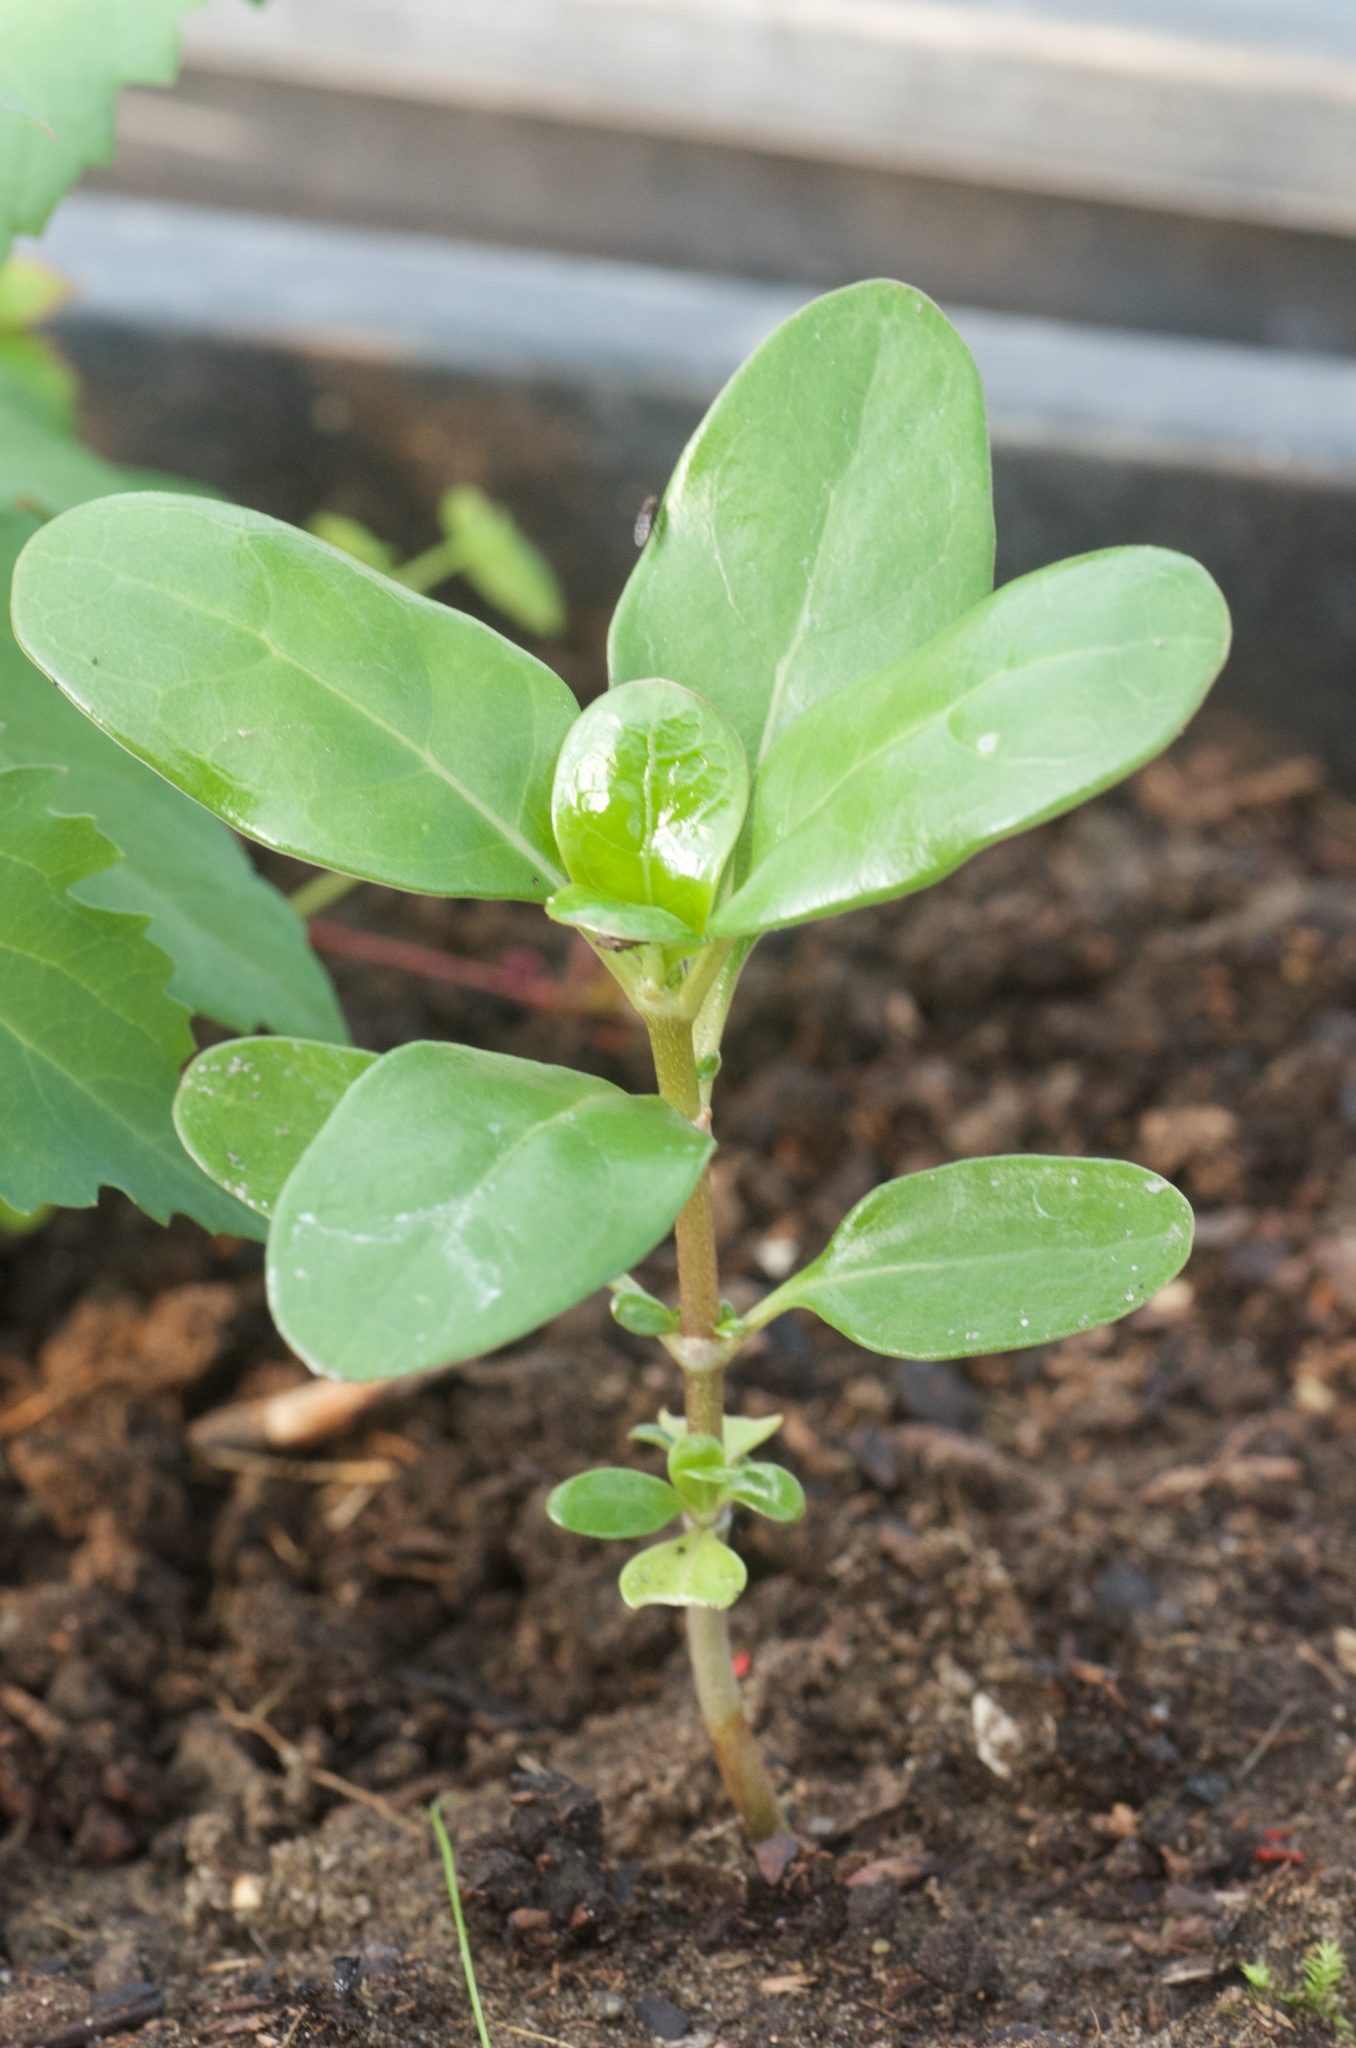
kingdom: Plantae
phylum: Tracheophyta
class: Magnoliopsida
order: Gentianales
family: Rubiaceae
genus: Coprosma
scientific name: Coprosma repens
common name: Tree bedstraw
